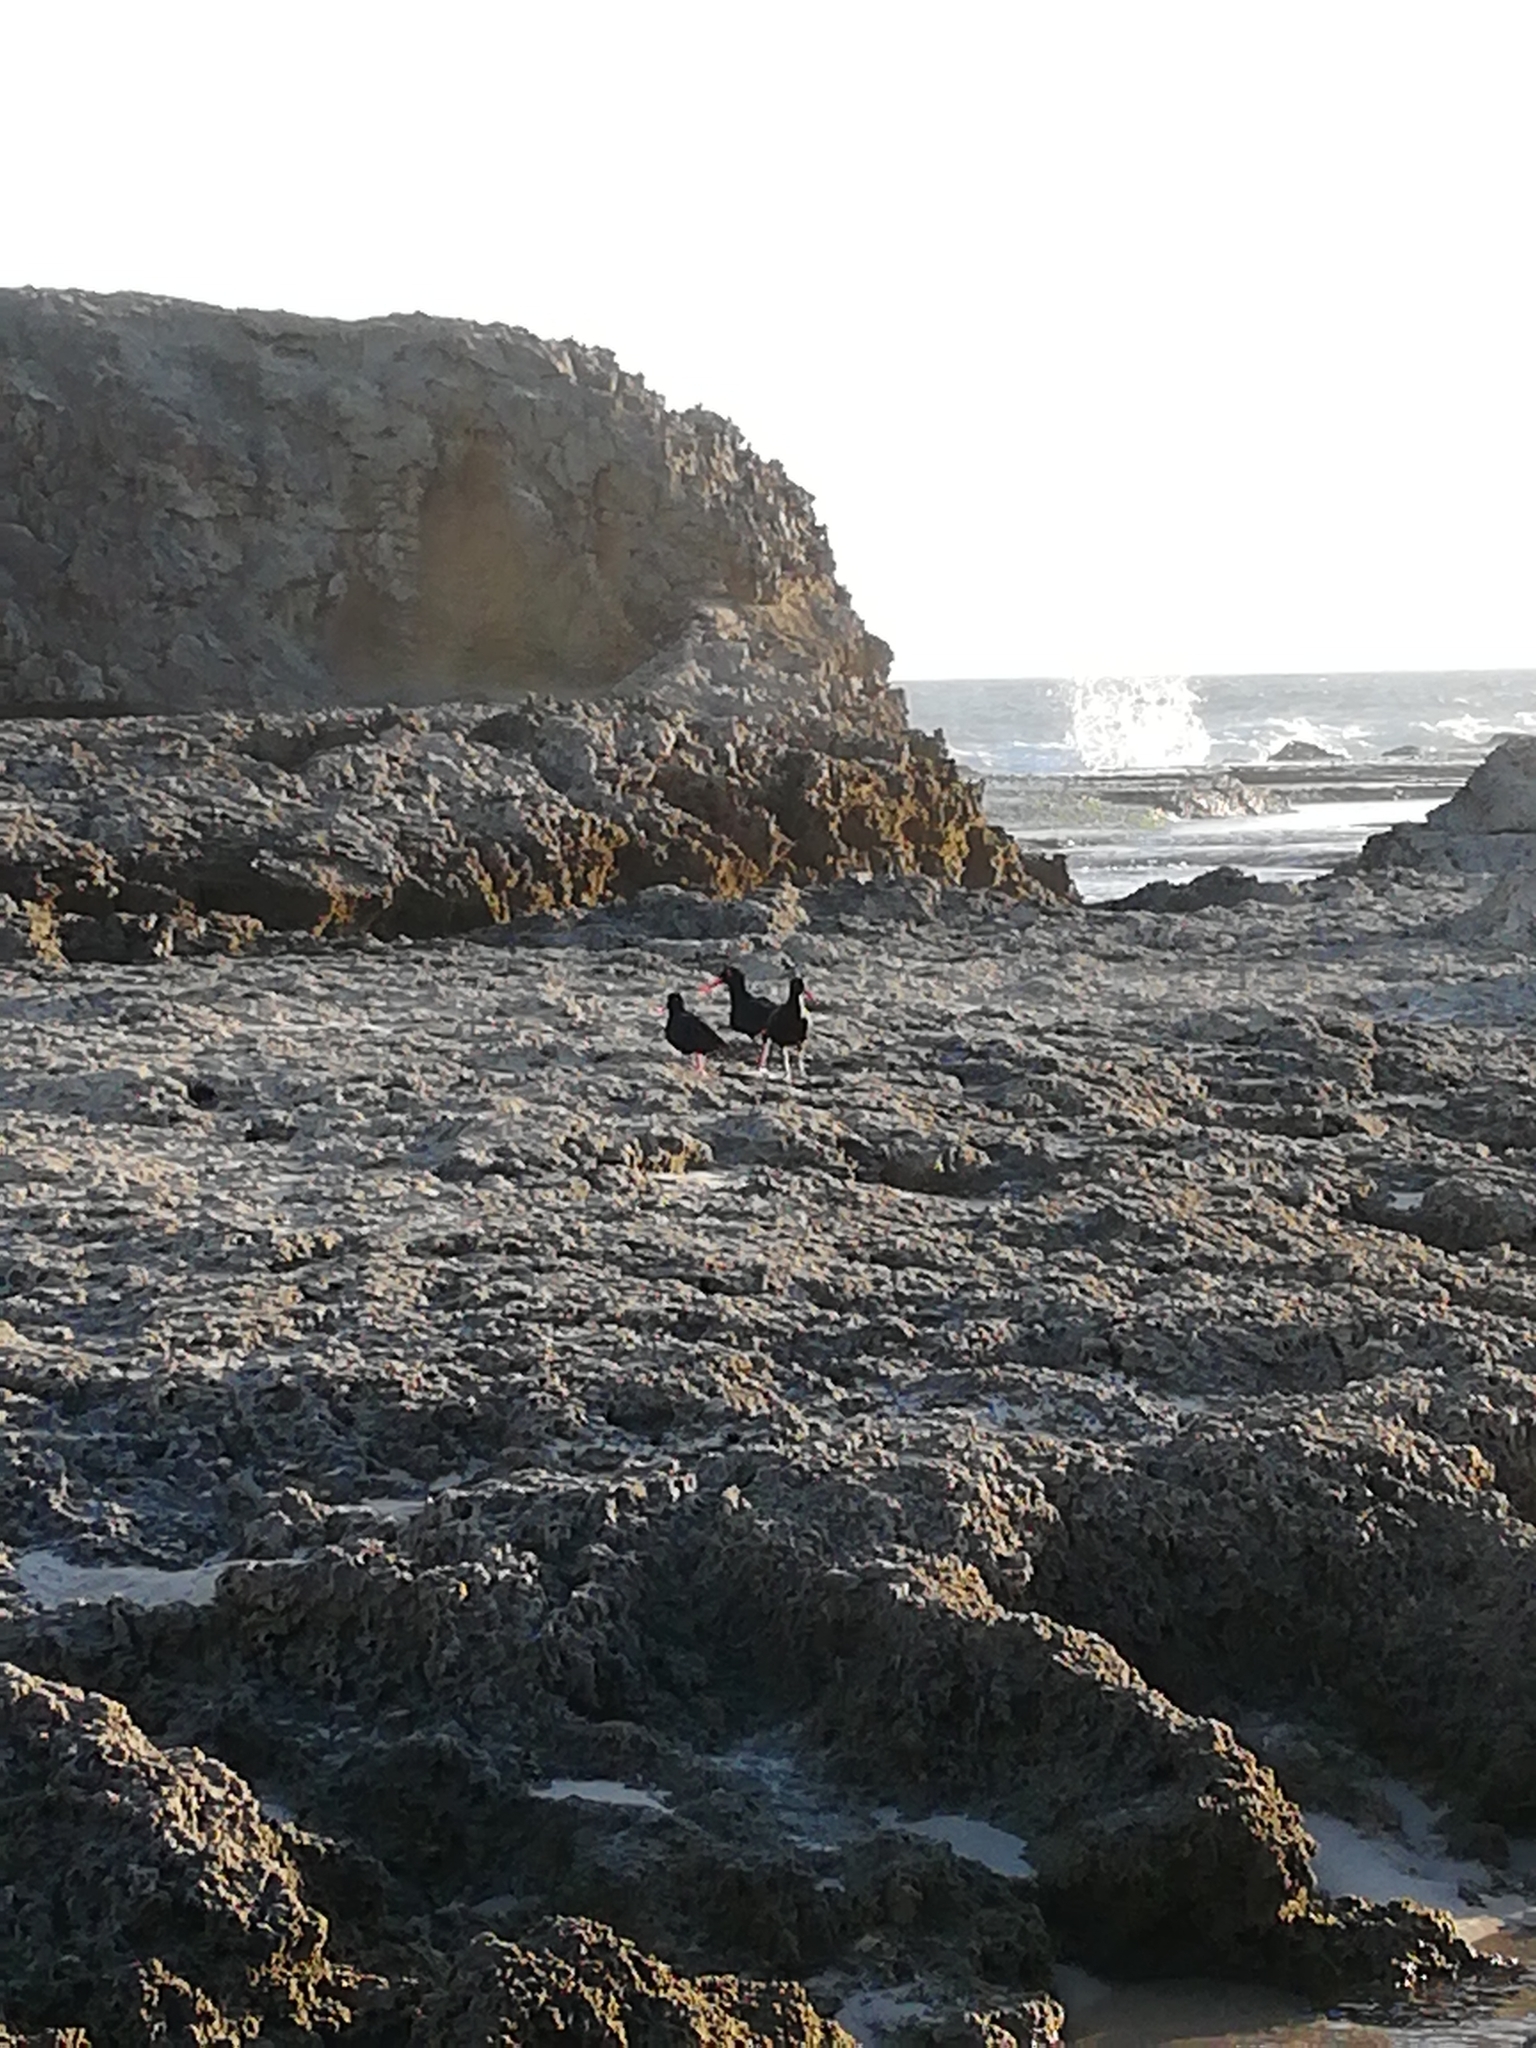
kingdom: Animalia
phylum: Chordata
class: Aves
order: Charadriiformes
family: Haematopodidae
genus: Haematopus
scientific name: Haematopus moquini
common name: African oystercatcher
